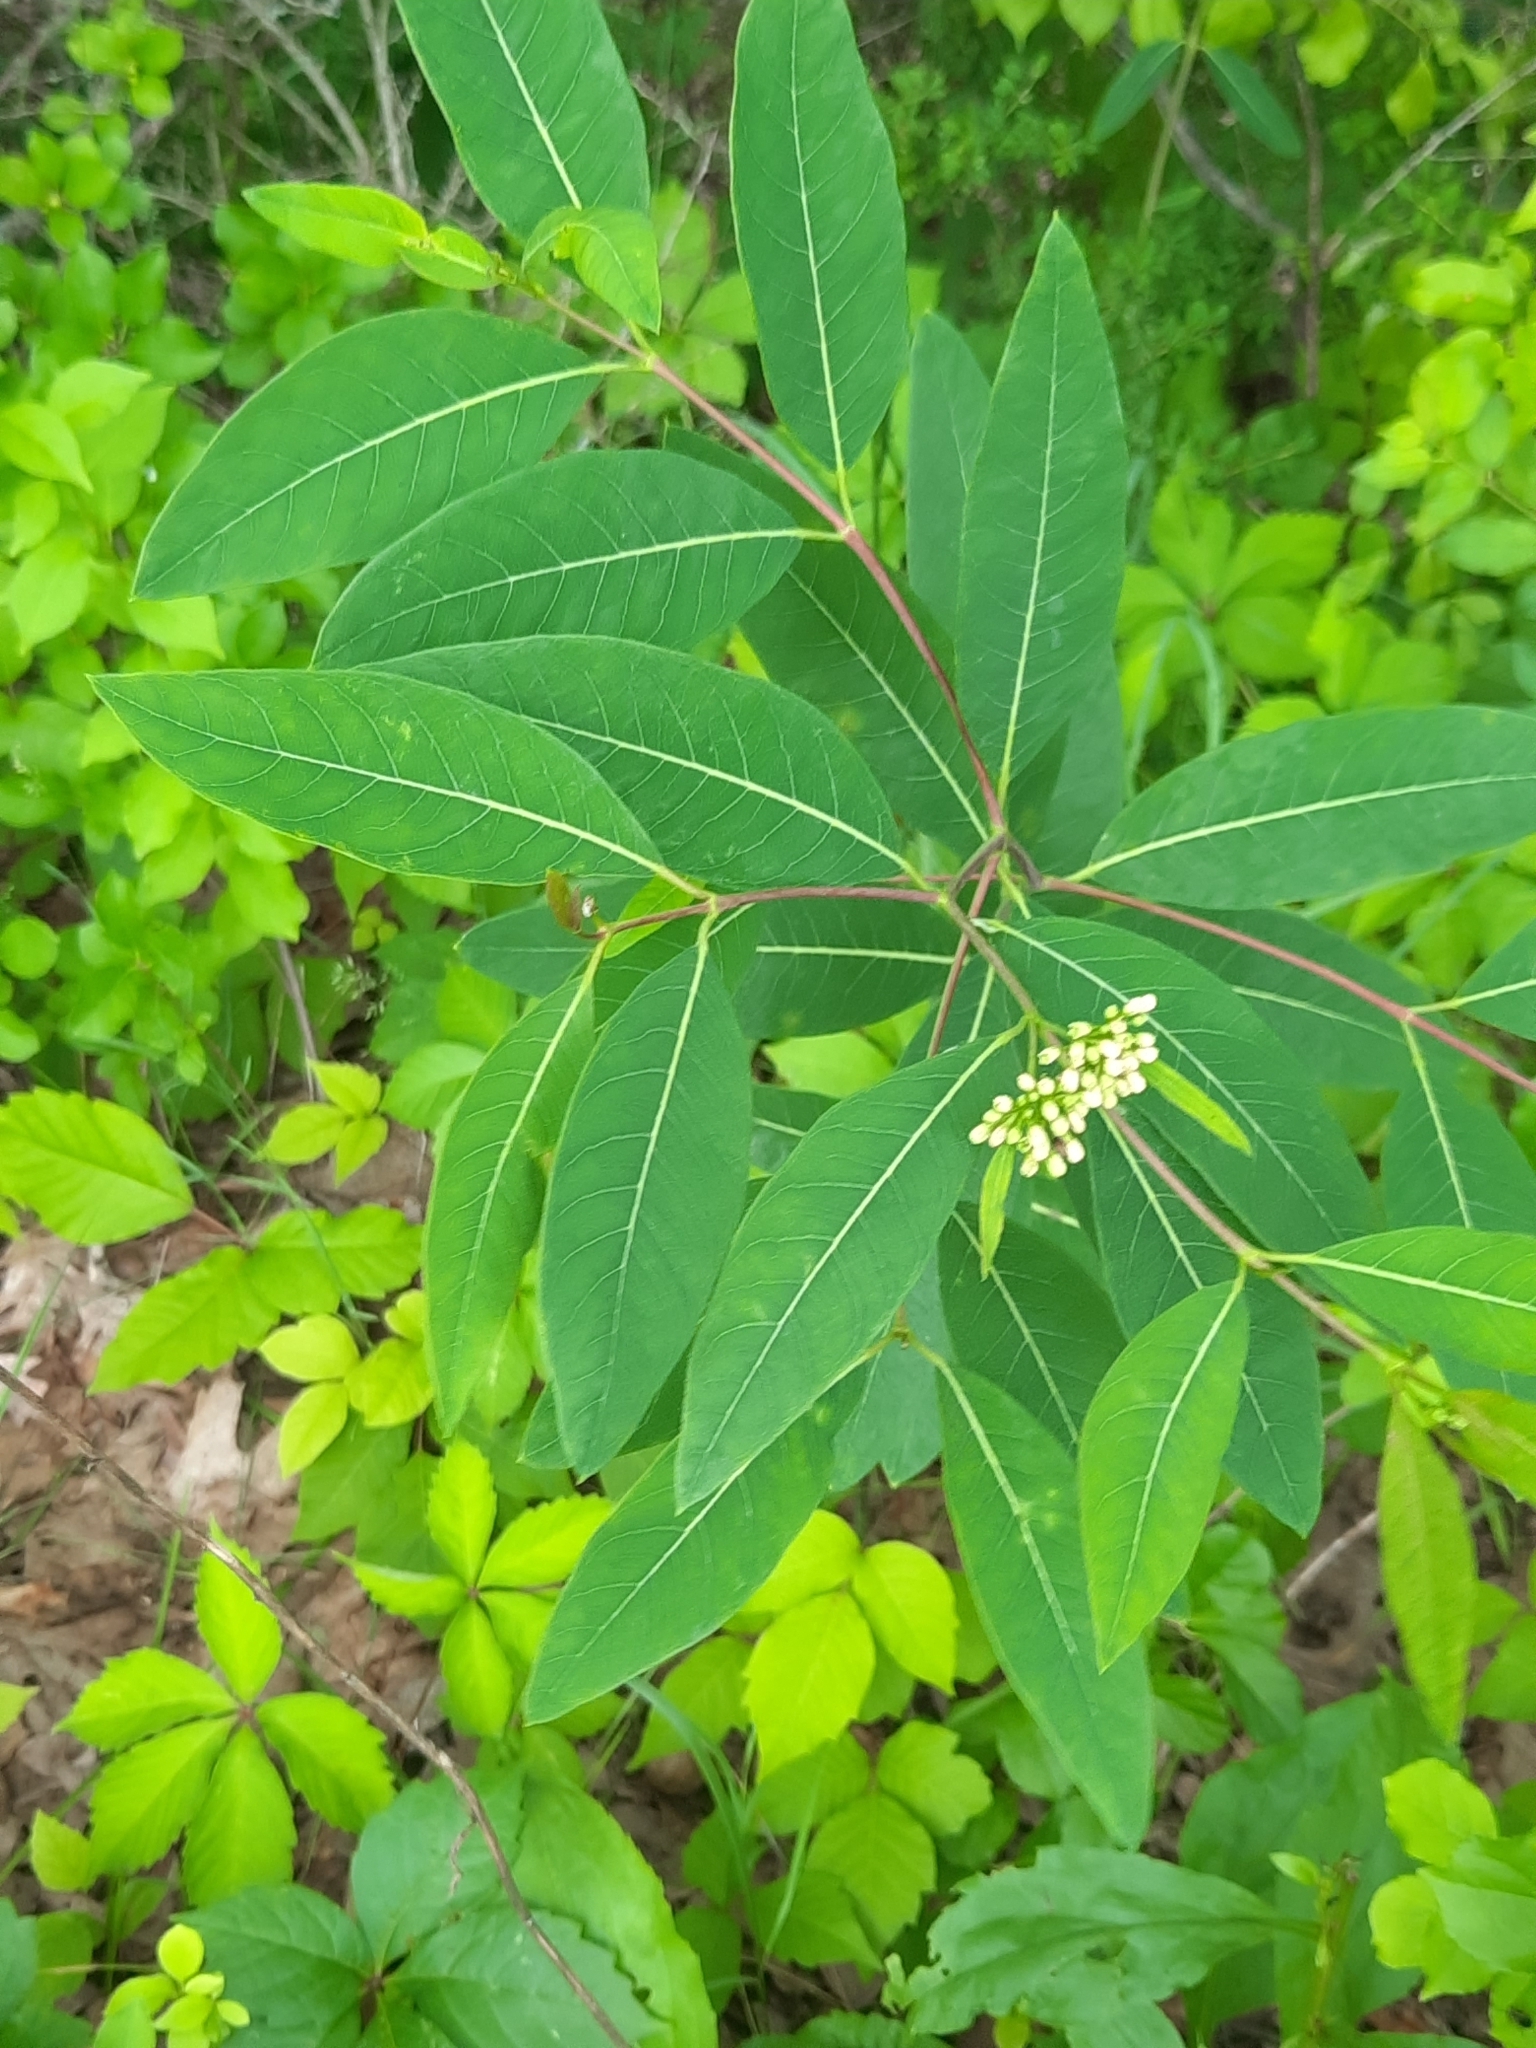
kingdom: Plantae
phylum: Tracheophyta
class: Magnoliopsida
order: Gentianales
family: Apocynaceae
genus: Apocynum
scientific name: Apocynum cannabinum
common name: Hemp dogbane
